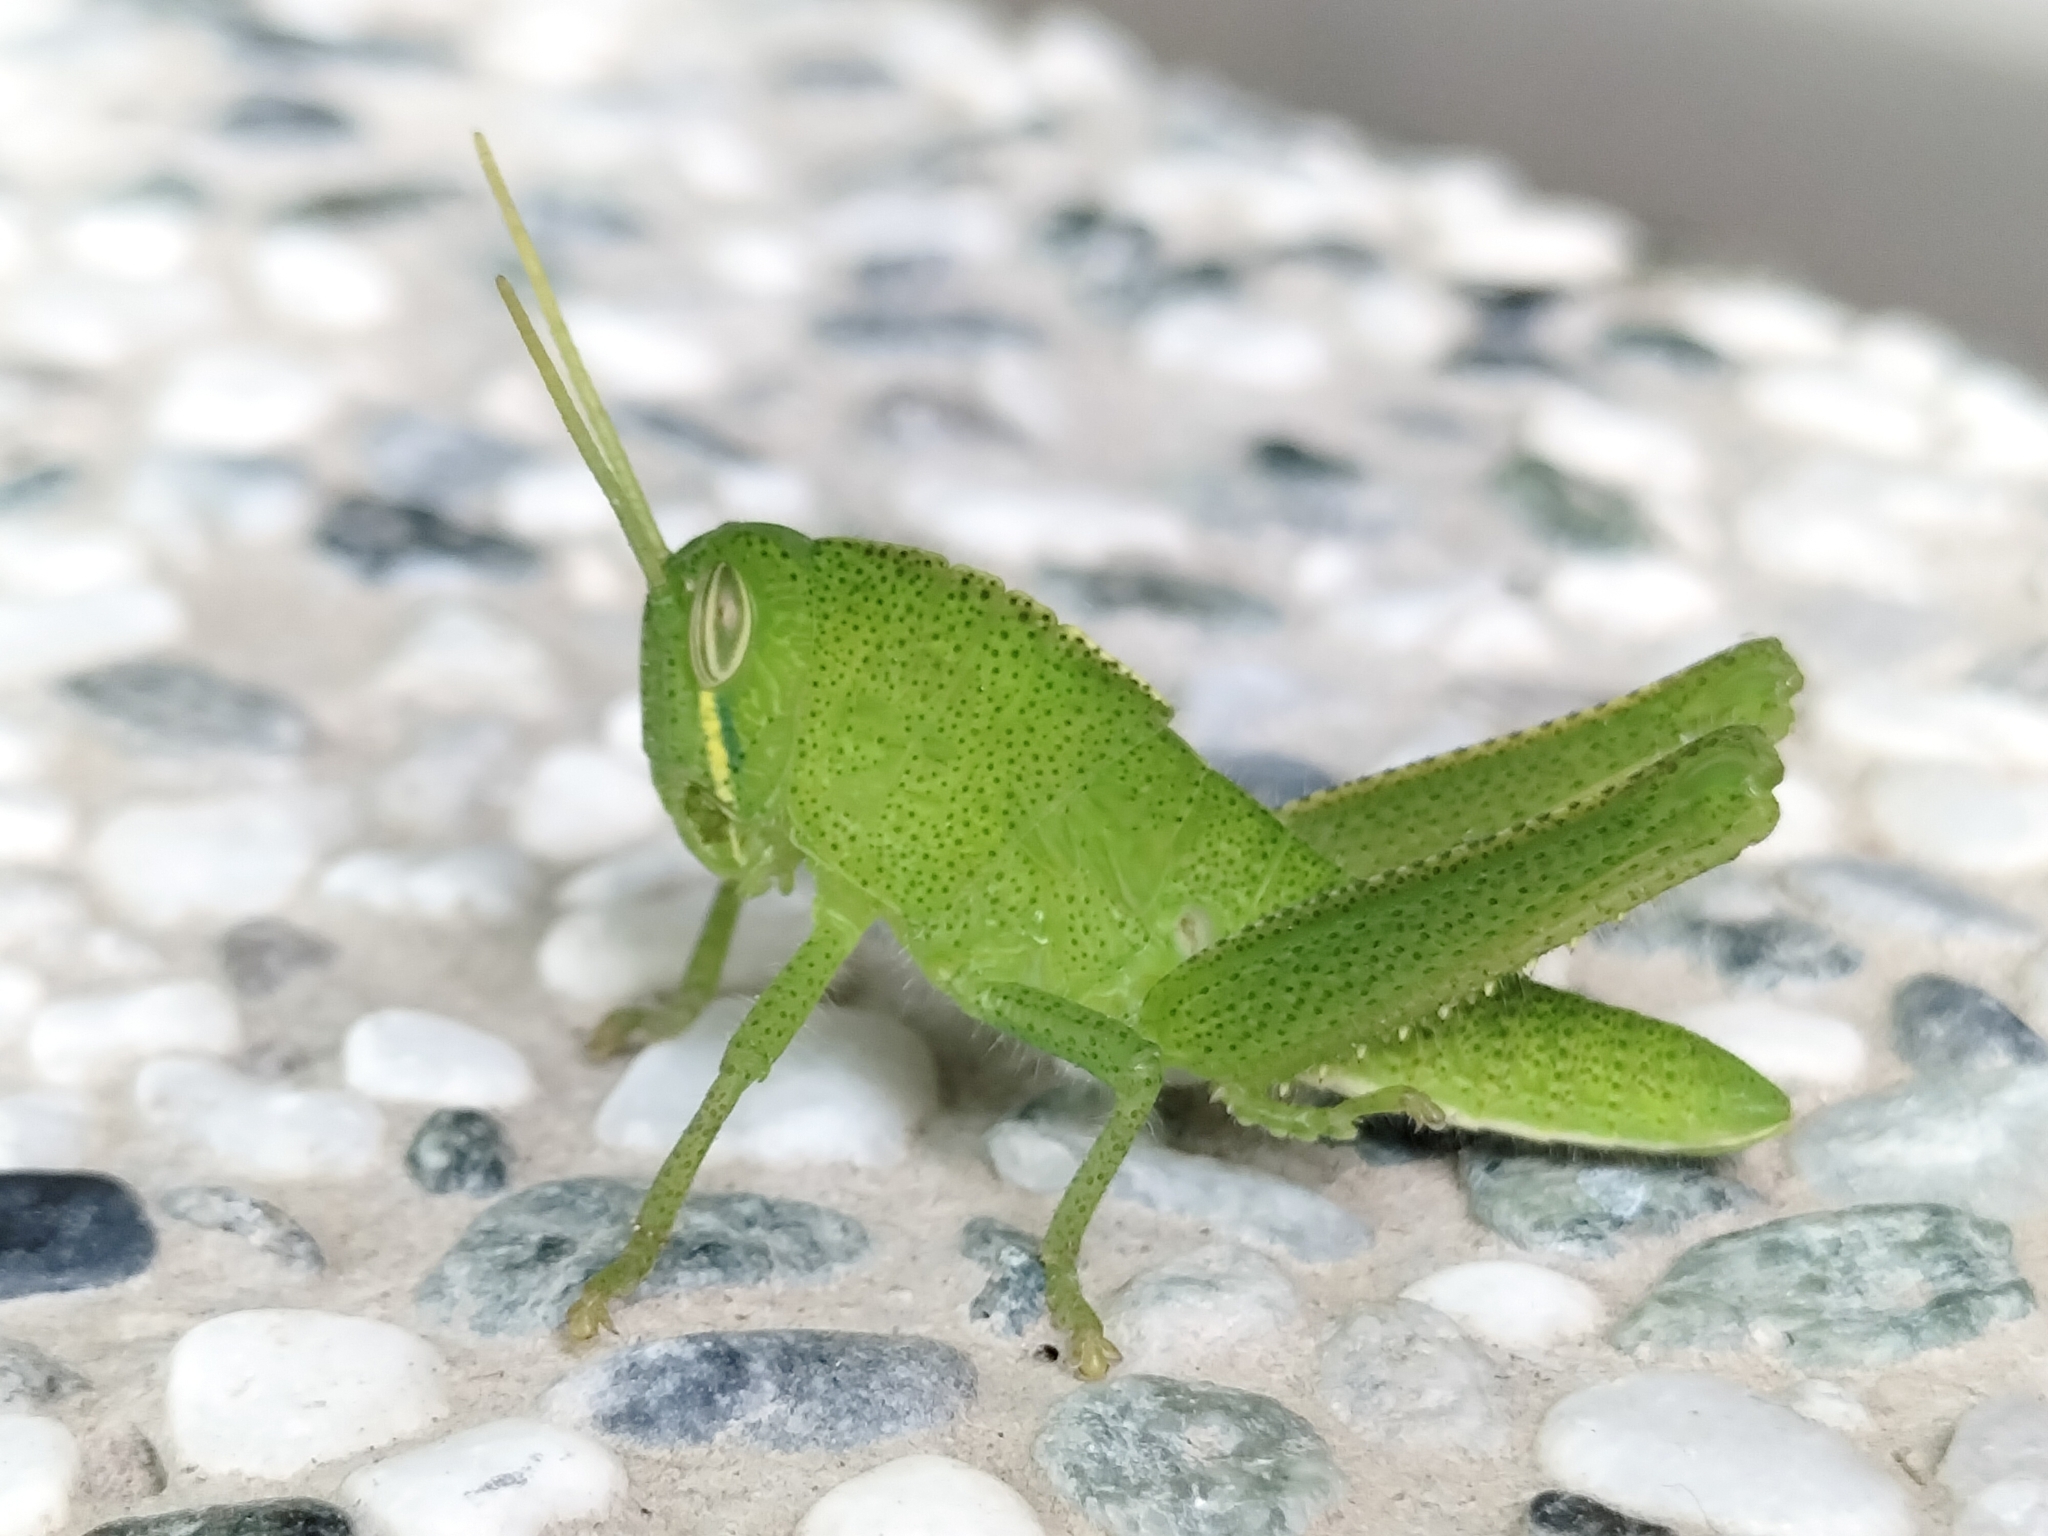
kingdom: Animalia
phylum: Arthropoda
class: Insecta
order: Orthoptera
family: Acrididae
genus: Chondracris
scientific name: Chondracris rosea
